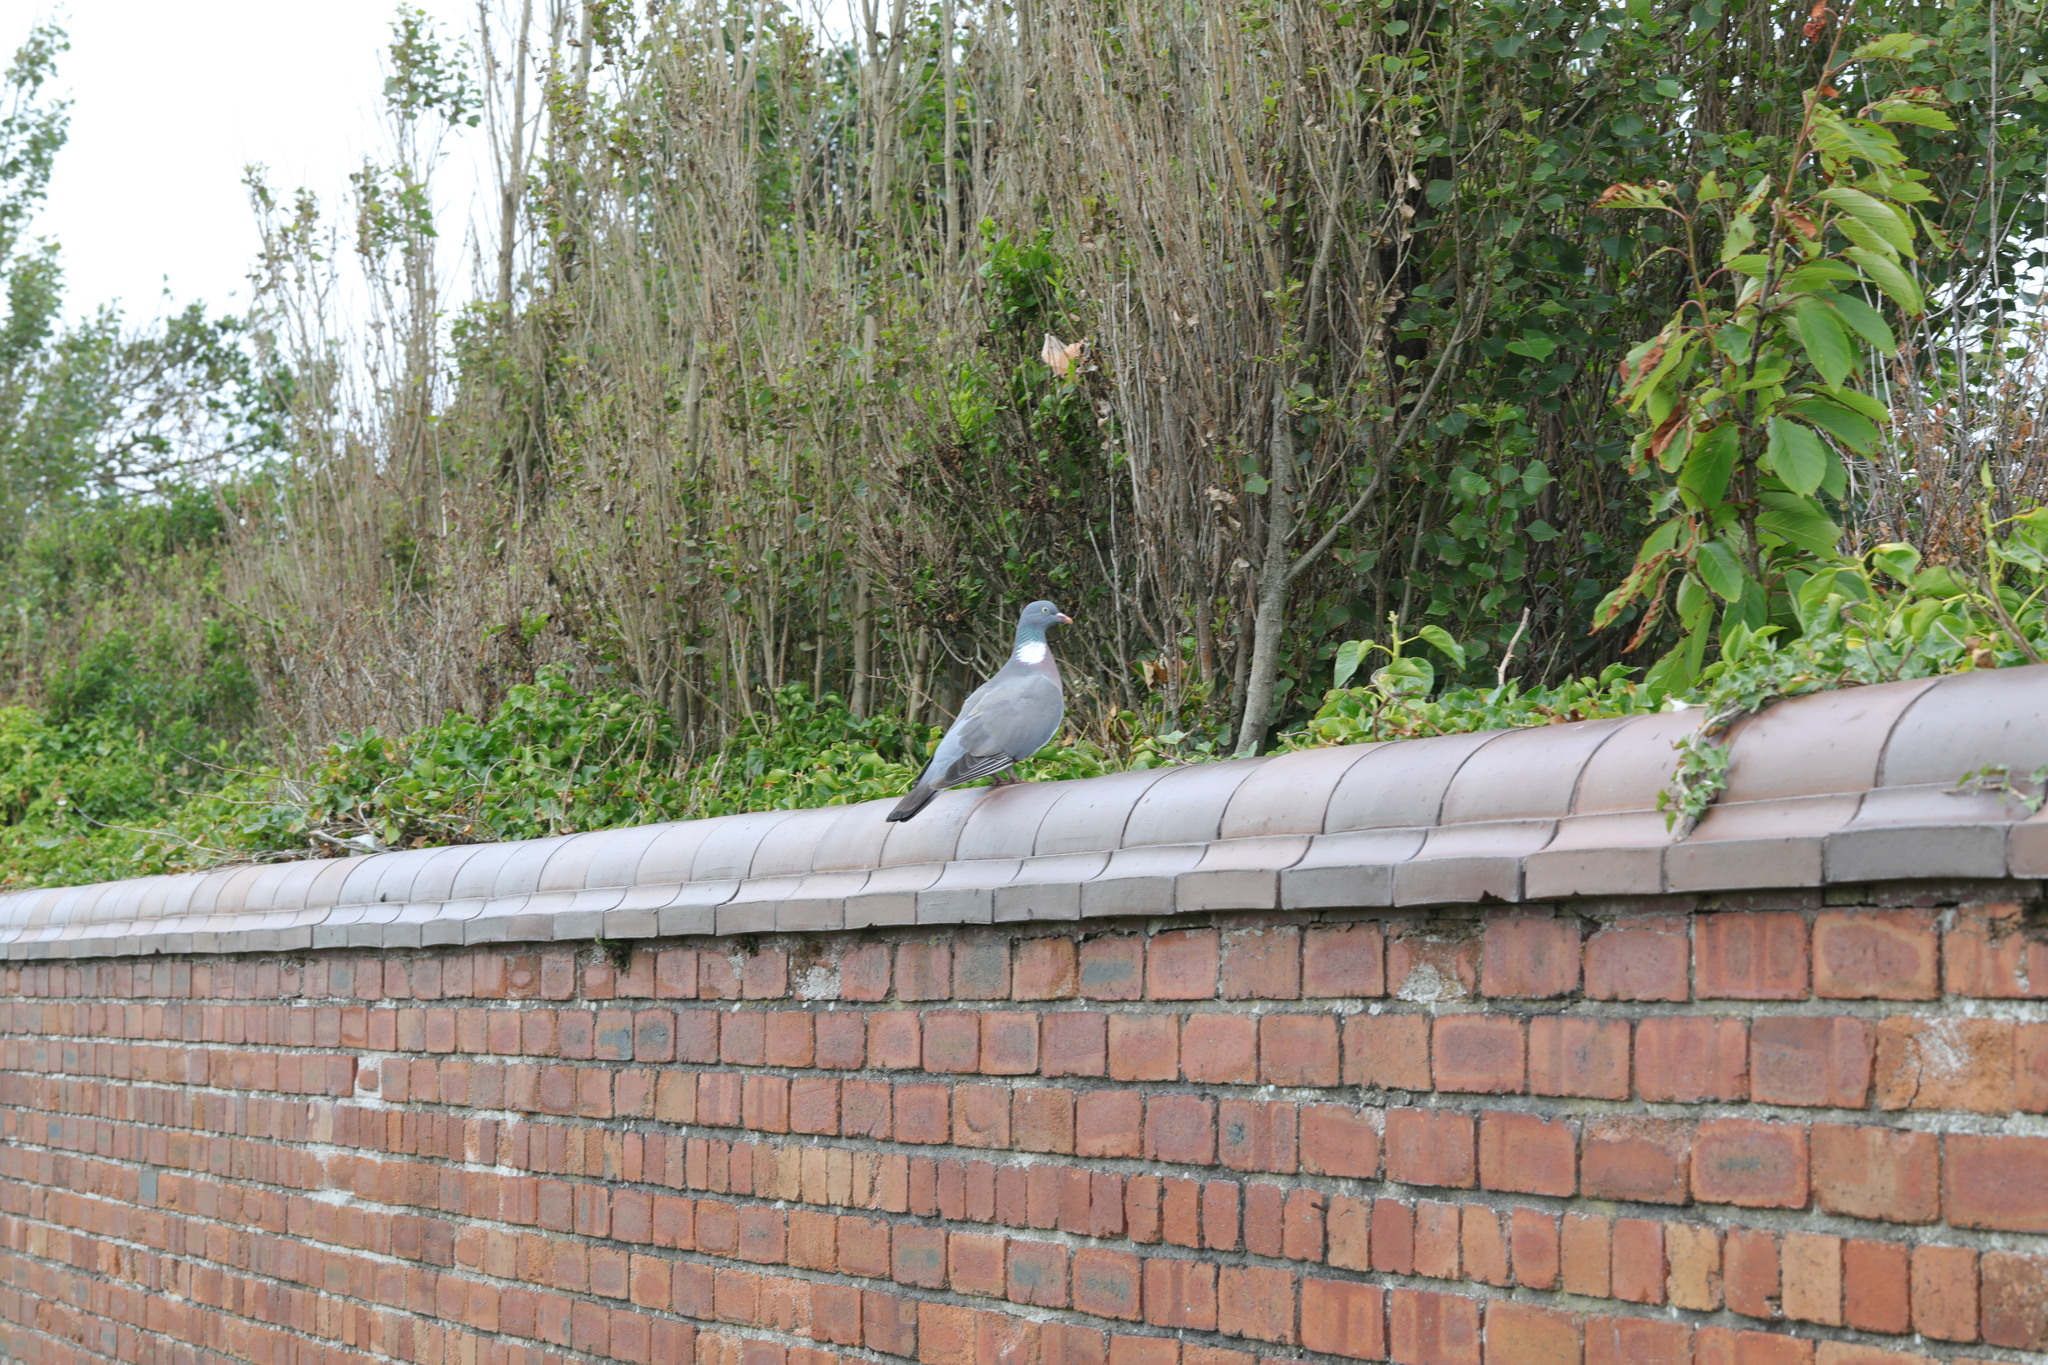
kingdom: Animalia
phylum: Chordata
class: Aves
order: Columbiformes
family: Columbidae
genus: Columba
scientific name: Columba palumbus
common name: Common wood pigeon
